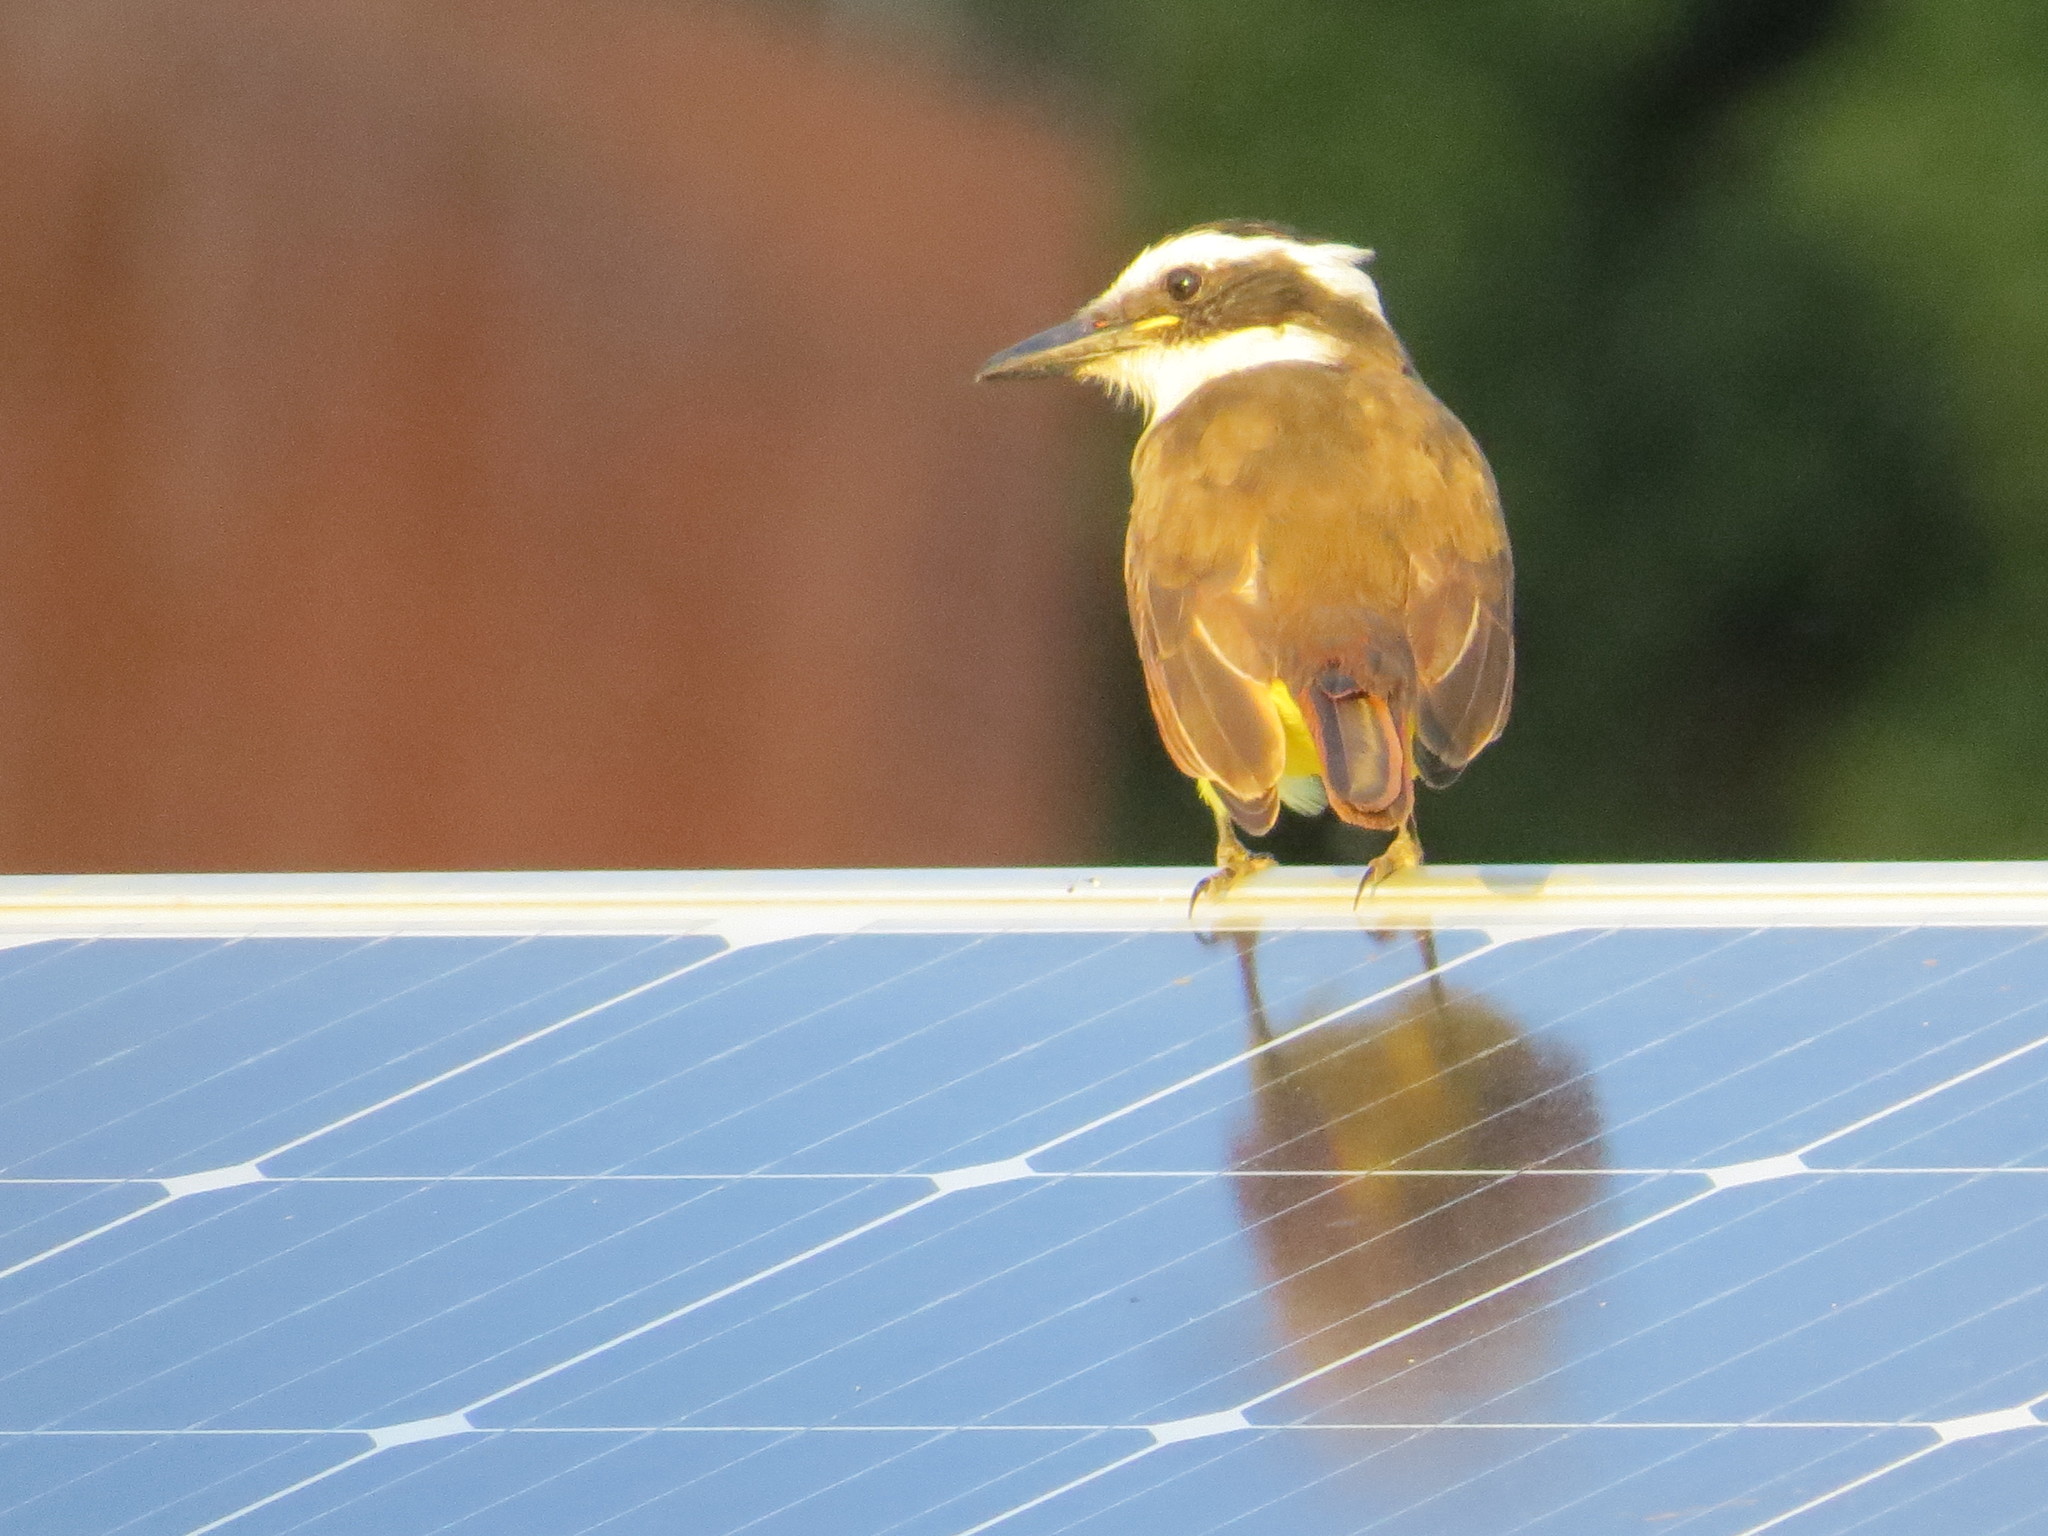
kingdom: Animalia
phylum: Chordata
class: Aves
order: Passeriformes
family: Tyrannidae
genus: Pitangus
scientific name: Pitangus sulphuratus
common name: Great kiskadee
